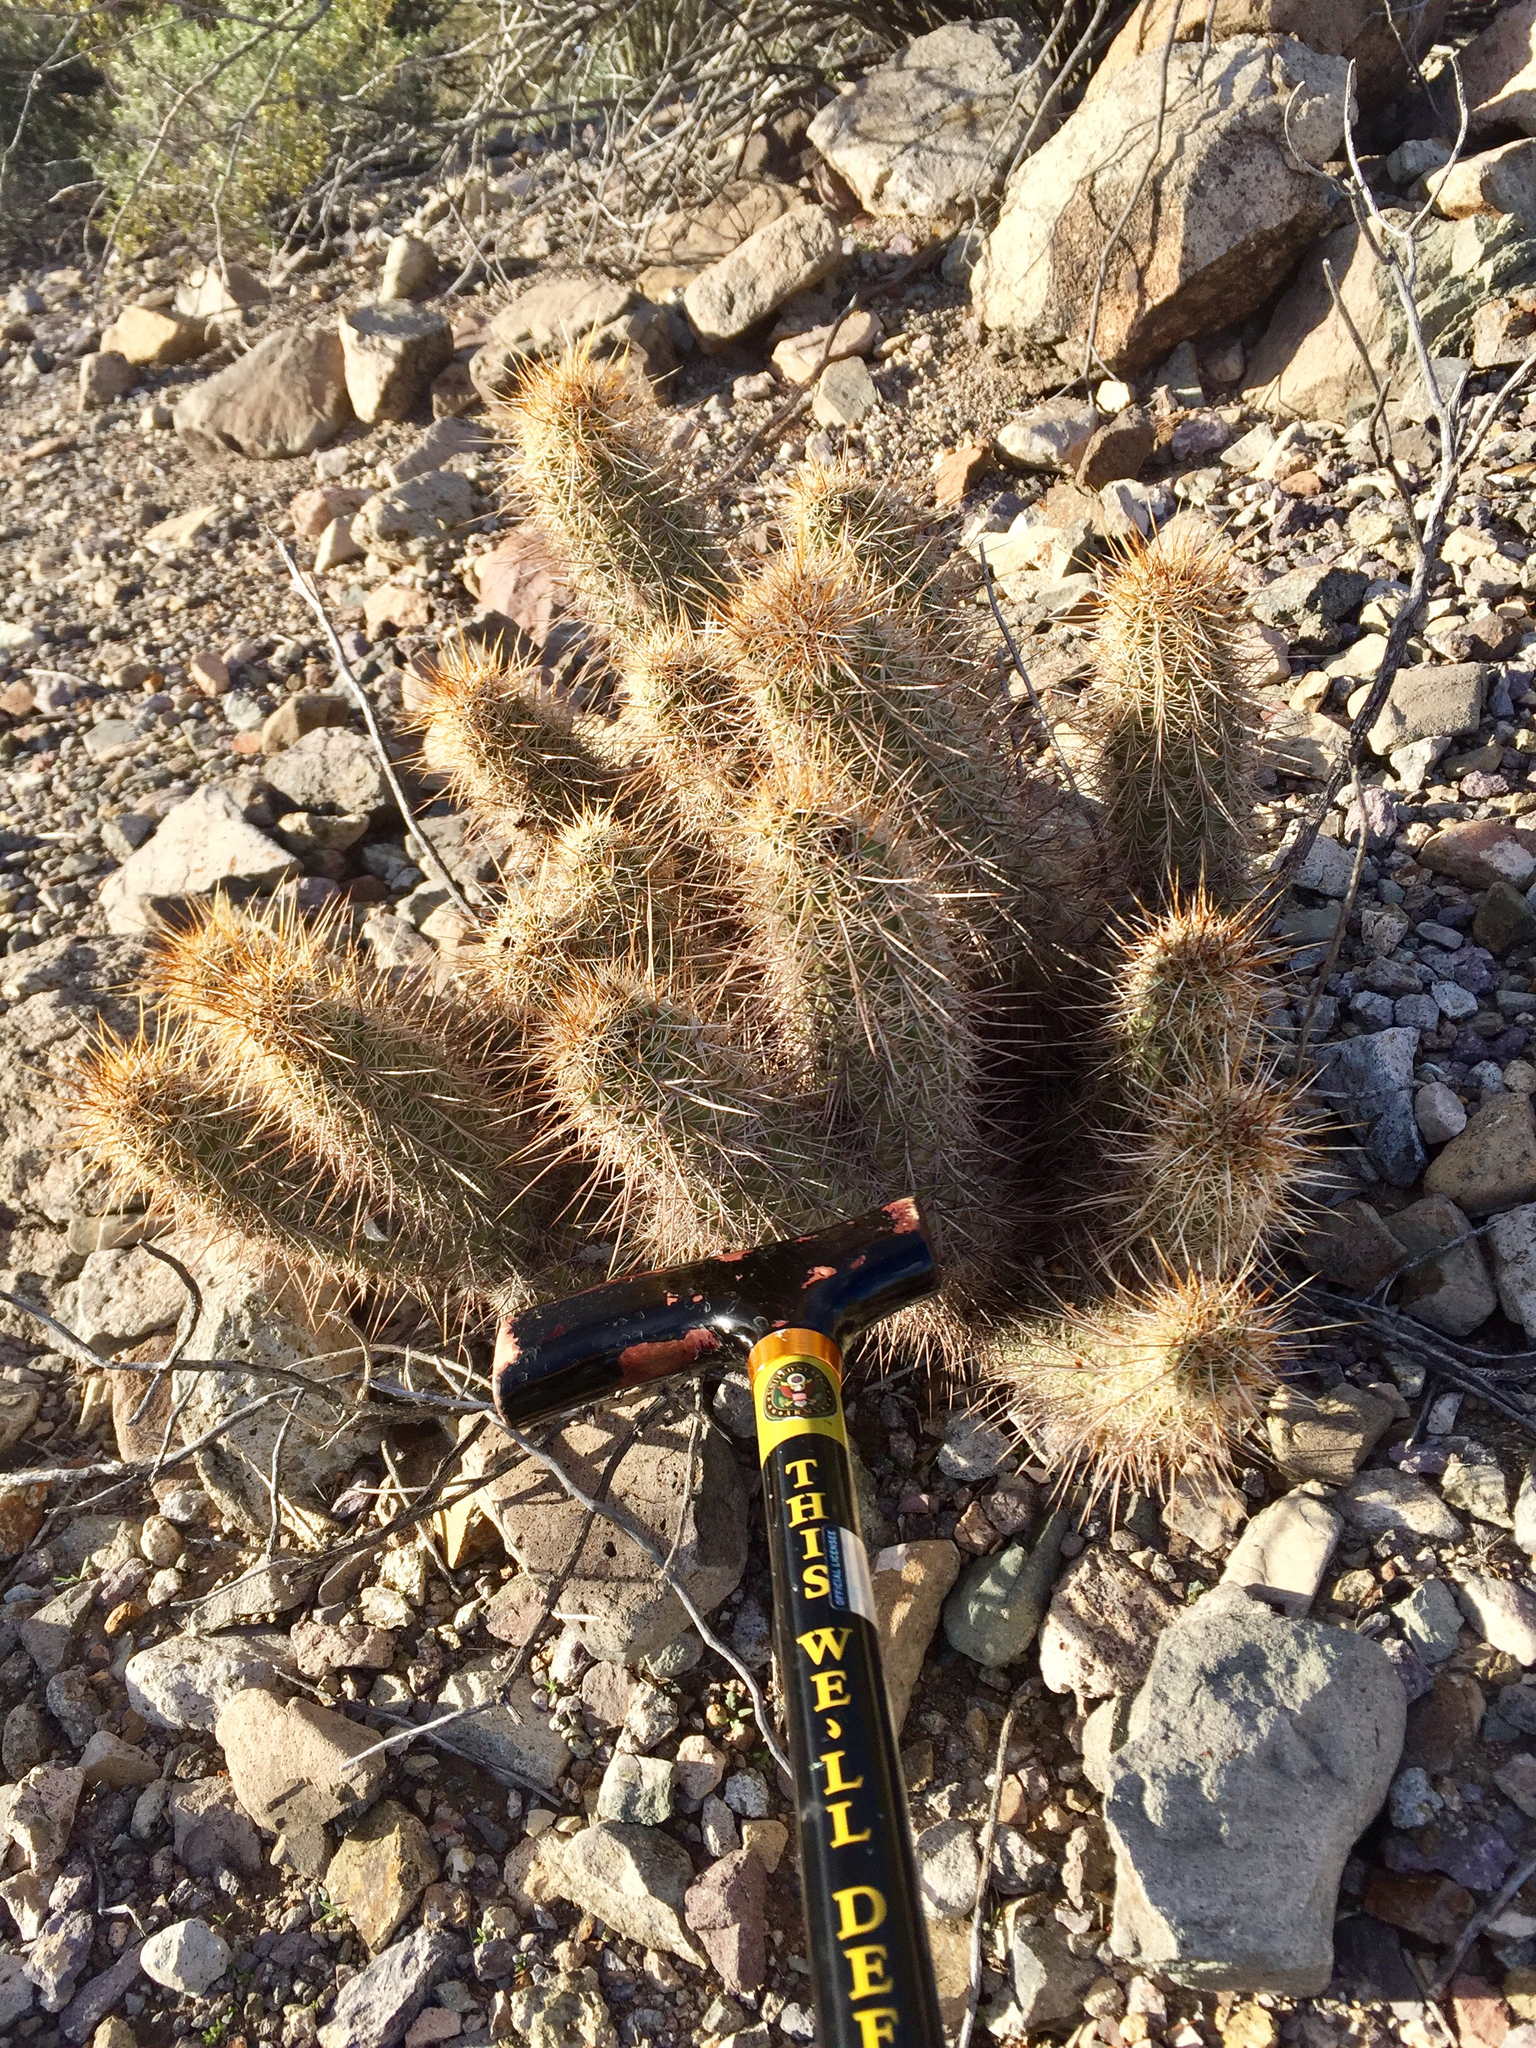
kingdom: Plantae
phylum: Tracheophyta
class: Magnoliopsida
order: Caryophyllales
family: Cactaceae
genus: Echinocereus
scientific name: Echinocereus engelmannii
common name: Engelmann's hedgehog cactus
